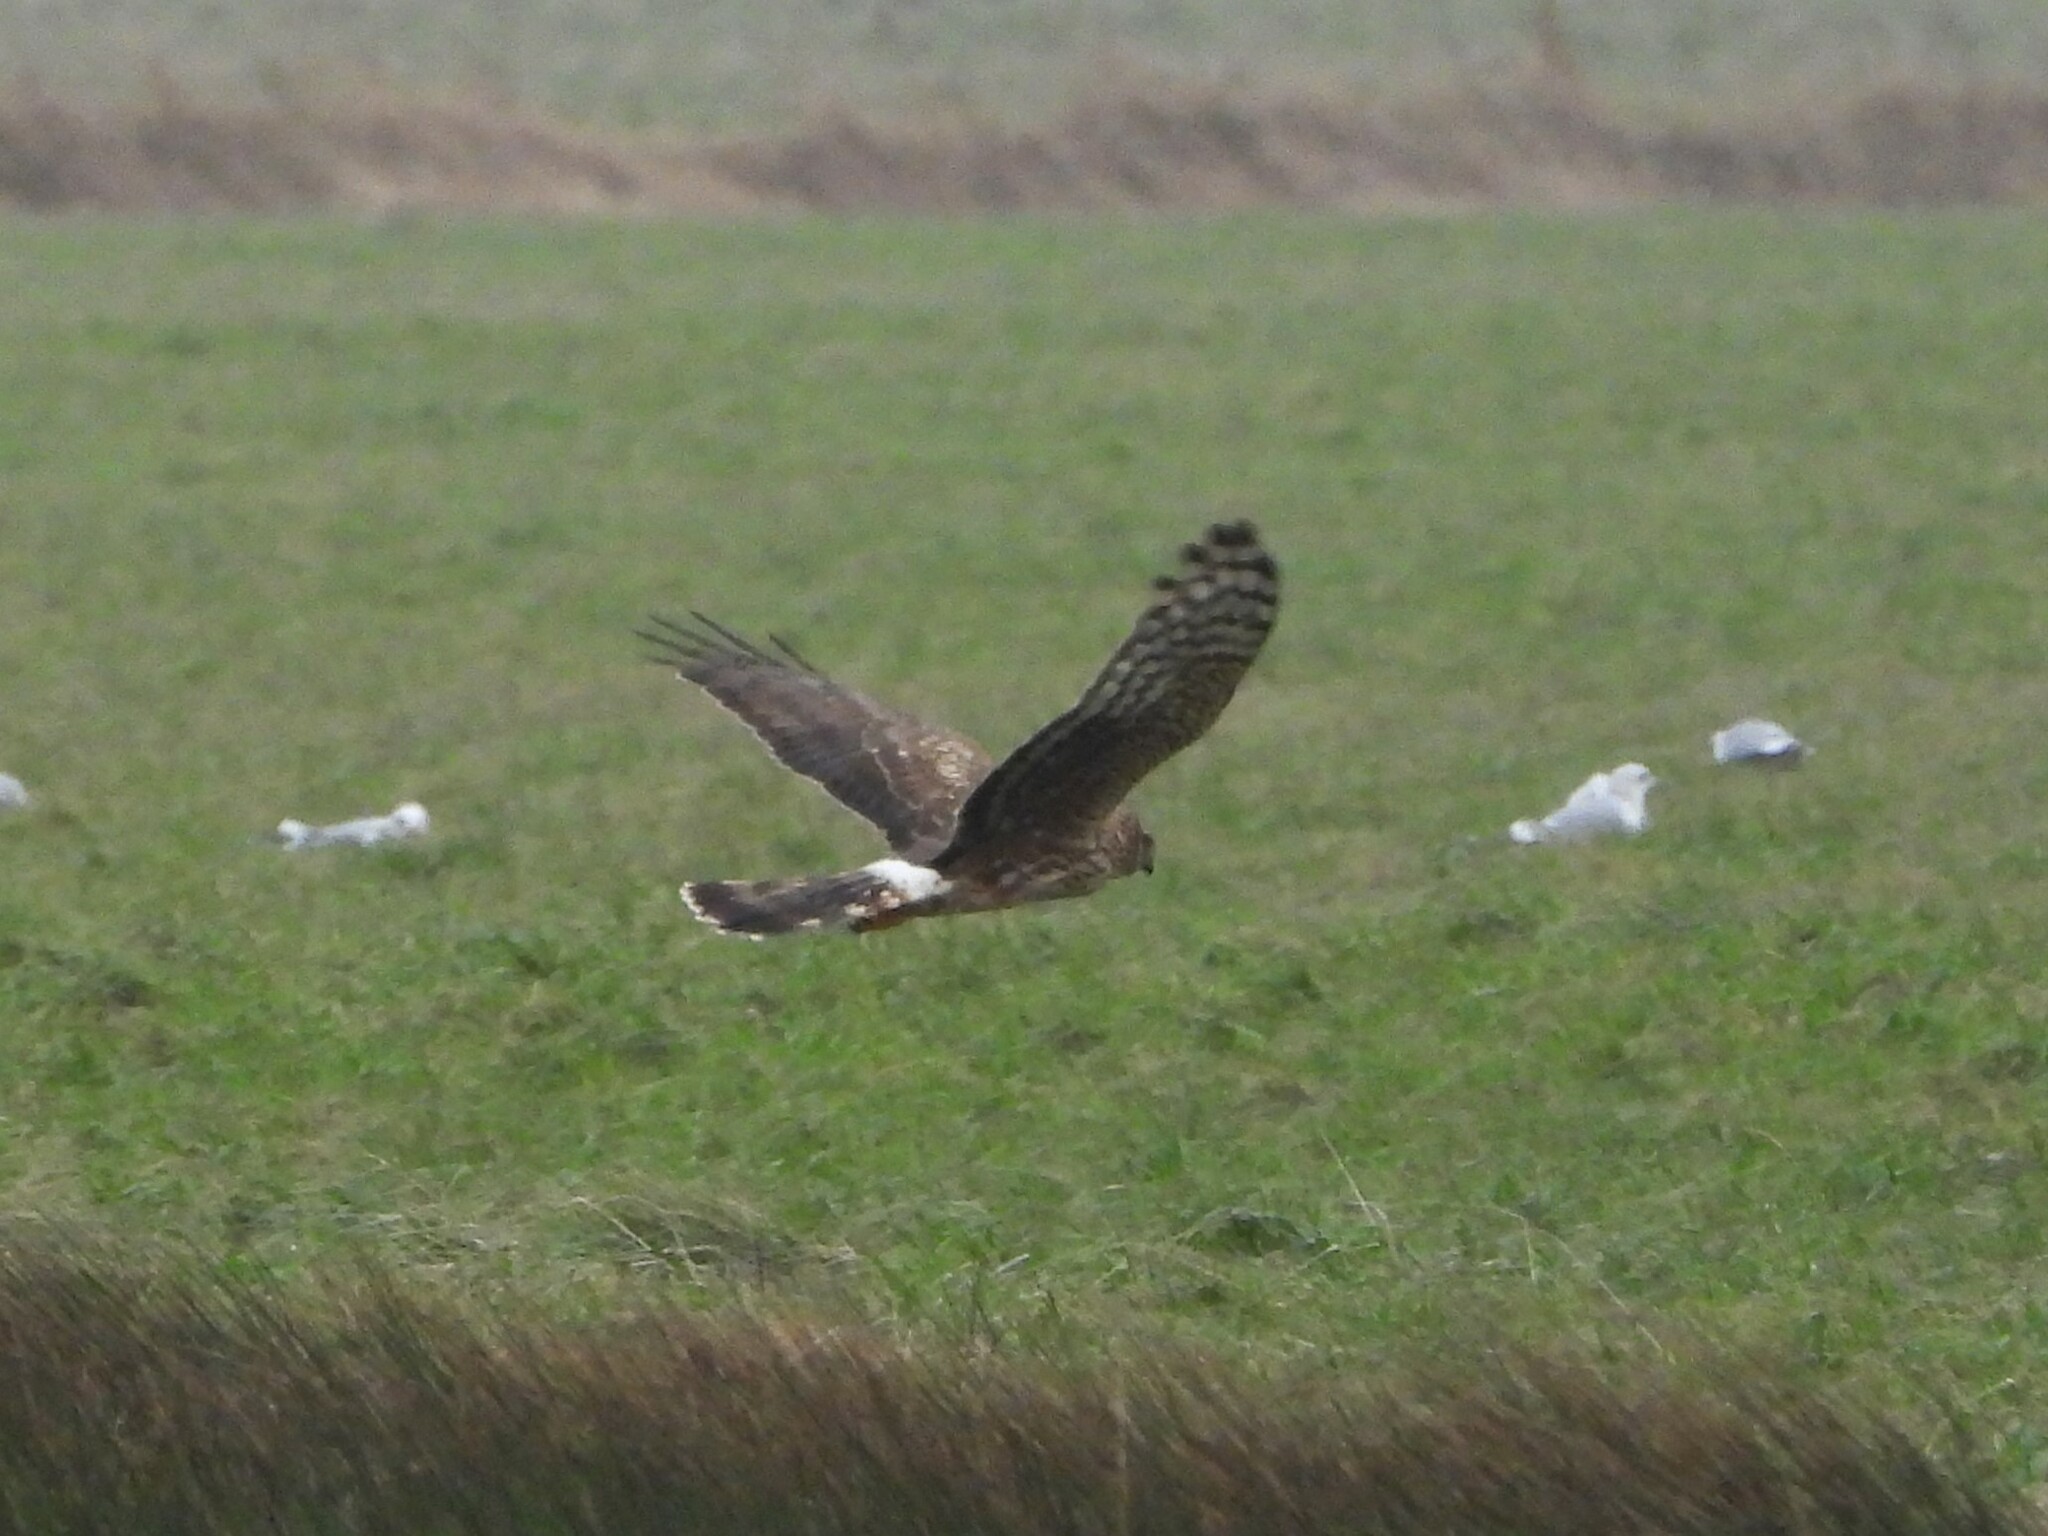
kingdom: Animalia
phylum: Chordata
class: Aves
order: Accipitriformes
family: Accipitridae
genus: Circus
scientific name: Circus cyaneus
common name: Hen harrier
